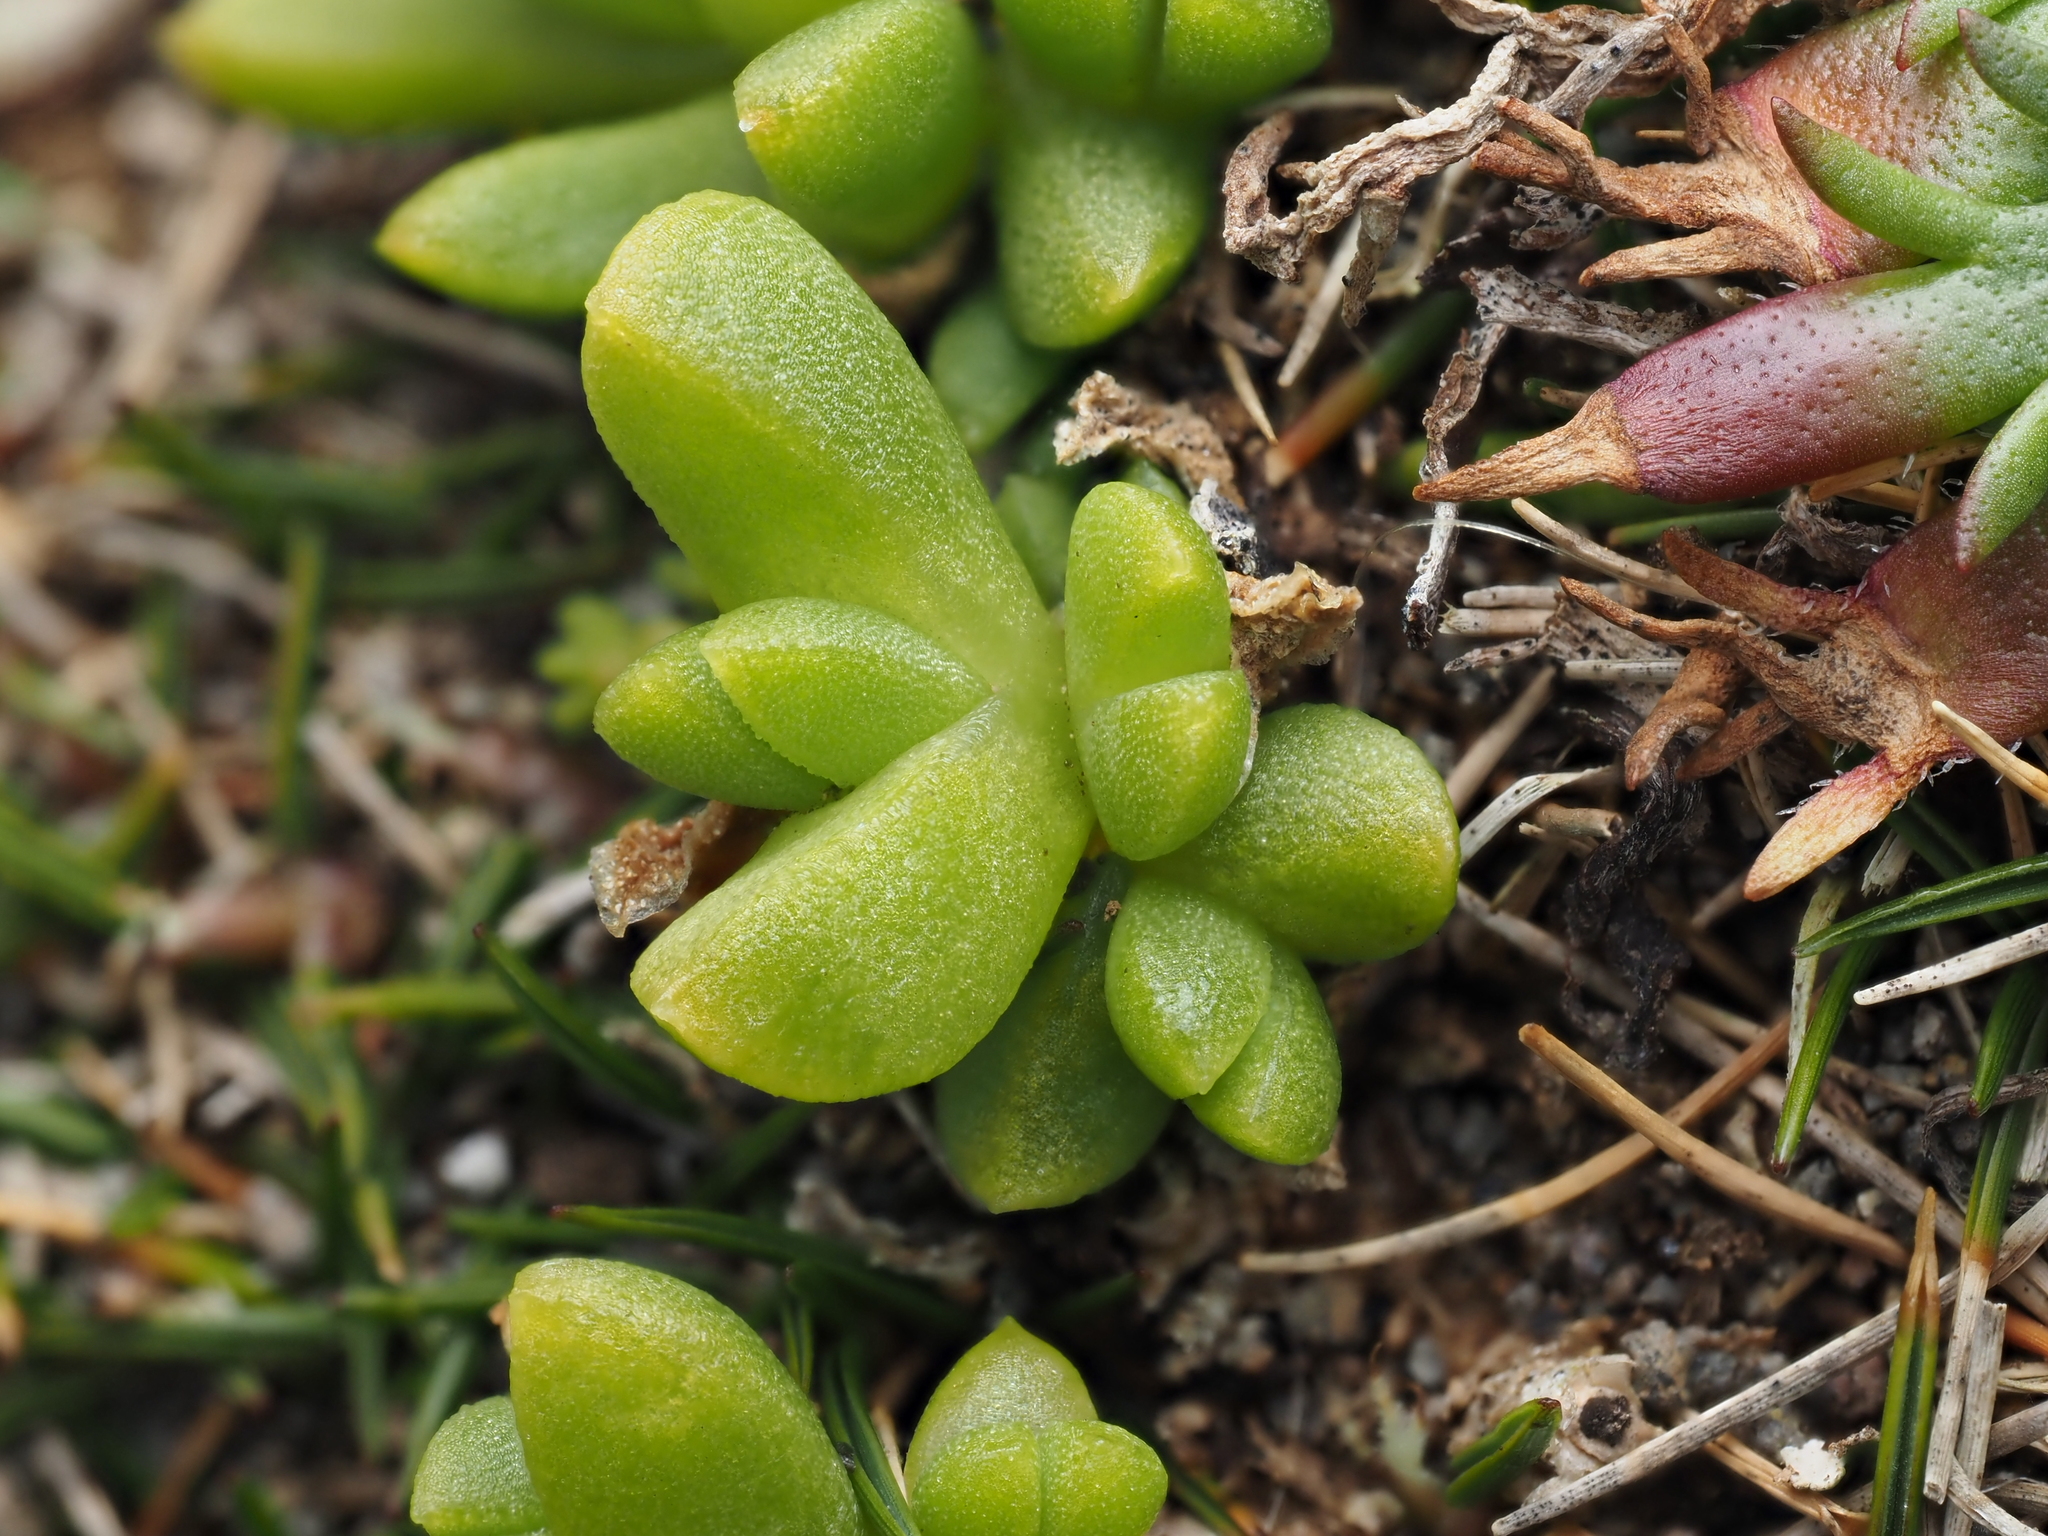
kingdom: Plantae
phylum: Tracheophyta
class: Magnoliopsida
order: Caryophyllales
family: Aizoaceae
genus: Disphyma
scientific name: Disphyma australe
